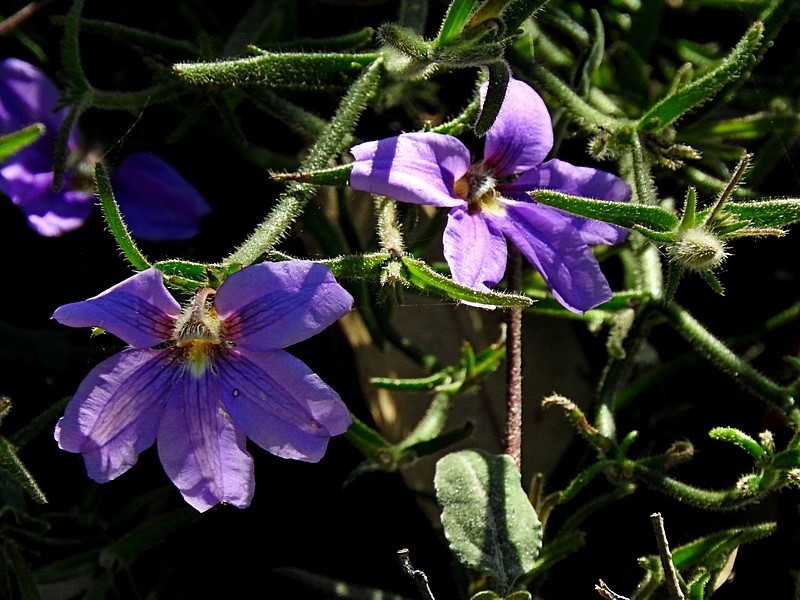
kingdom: Plantae
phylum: Tracheophyta
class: Magnoliopsida
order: Asterales
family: Goodeniaceae
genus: Scaevola
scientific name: Scaevola ramosissima
